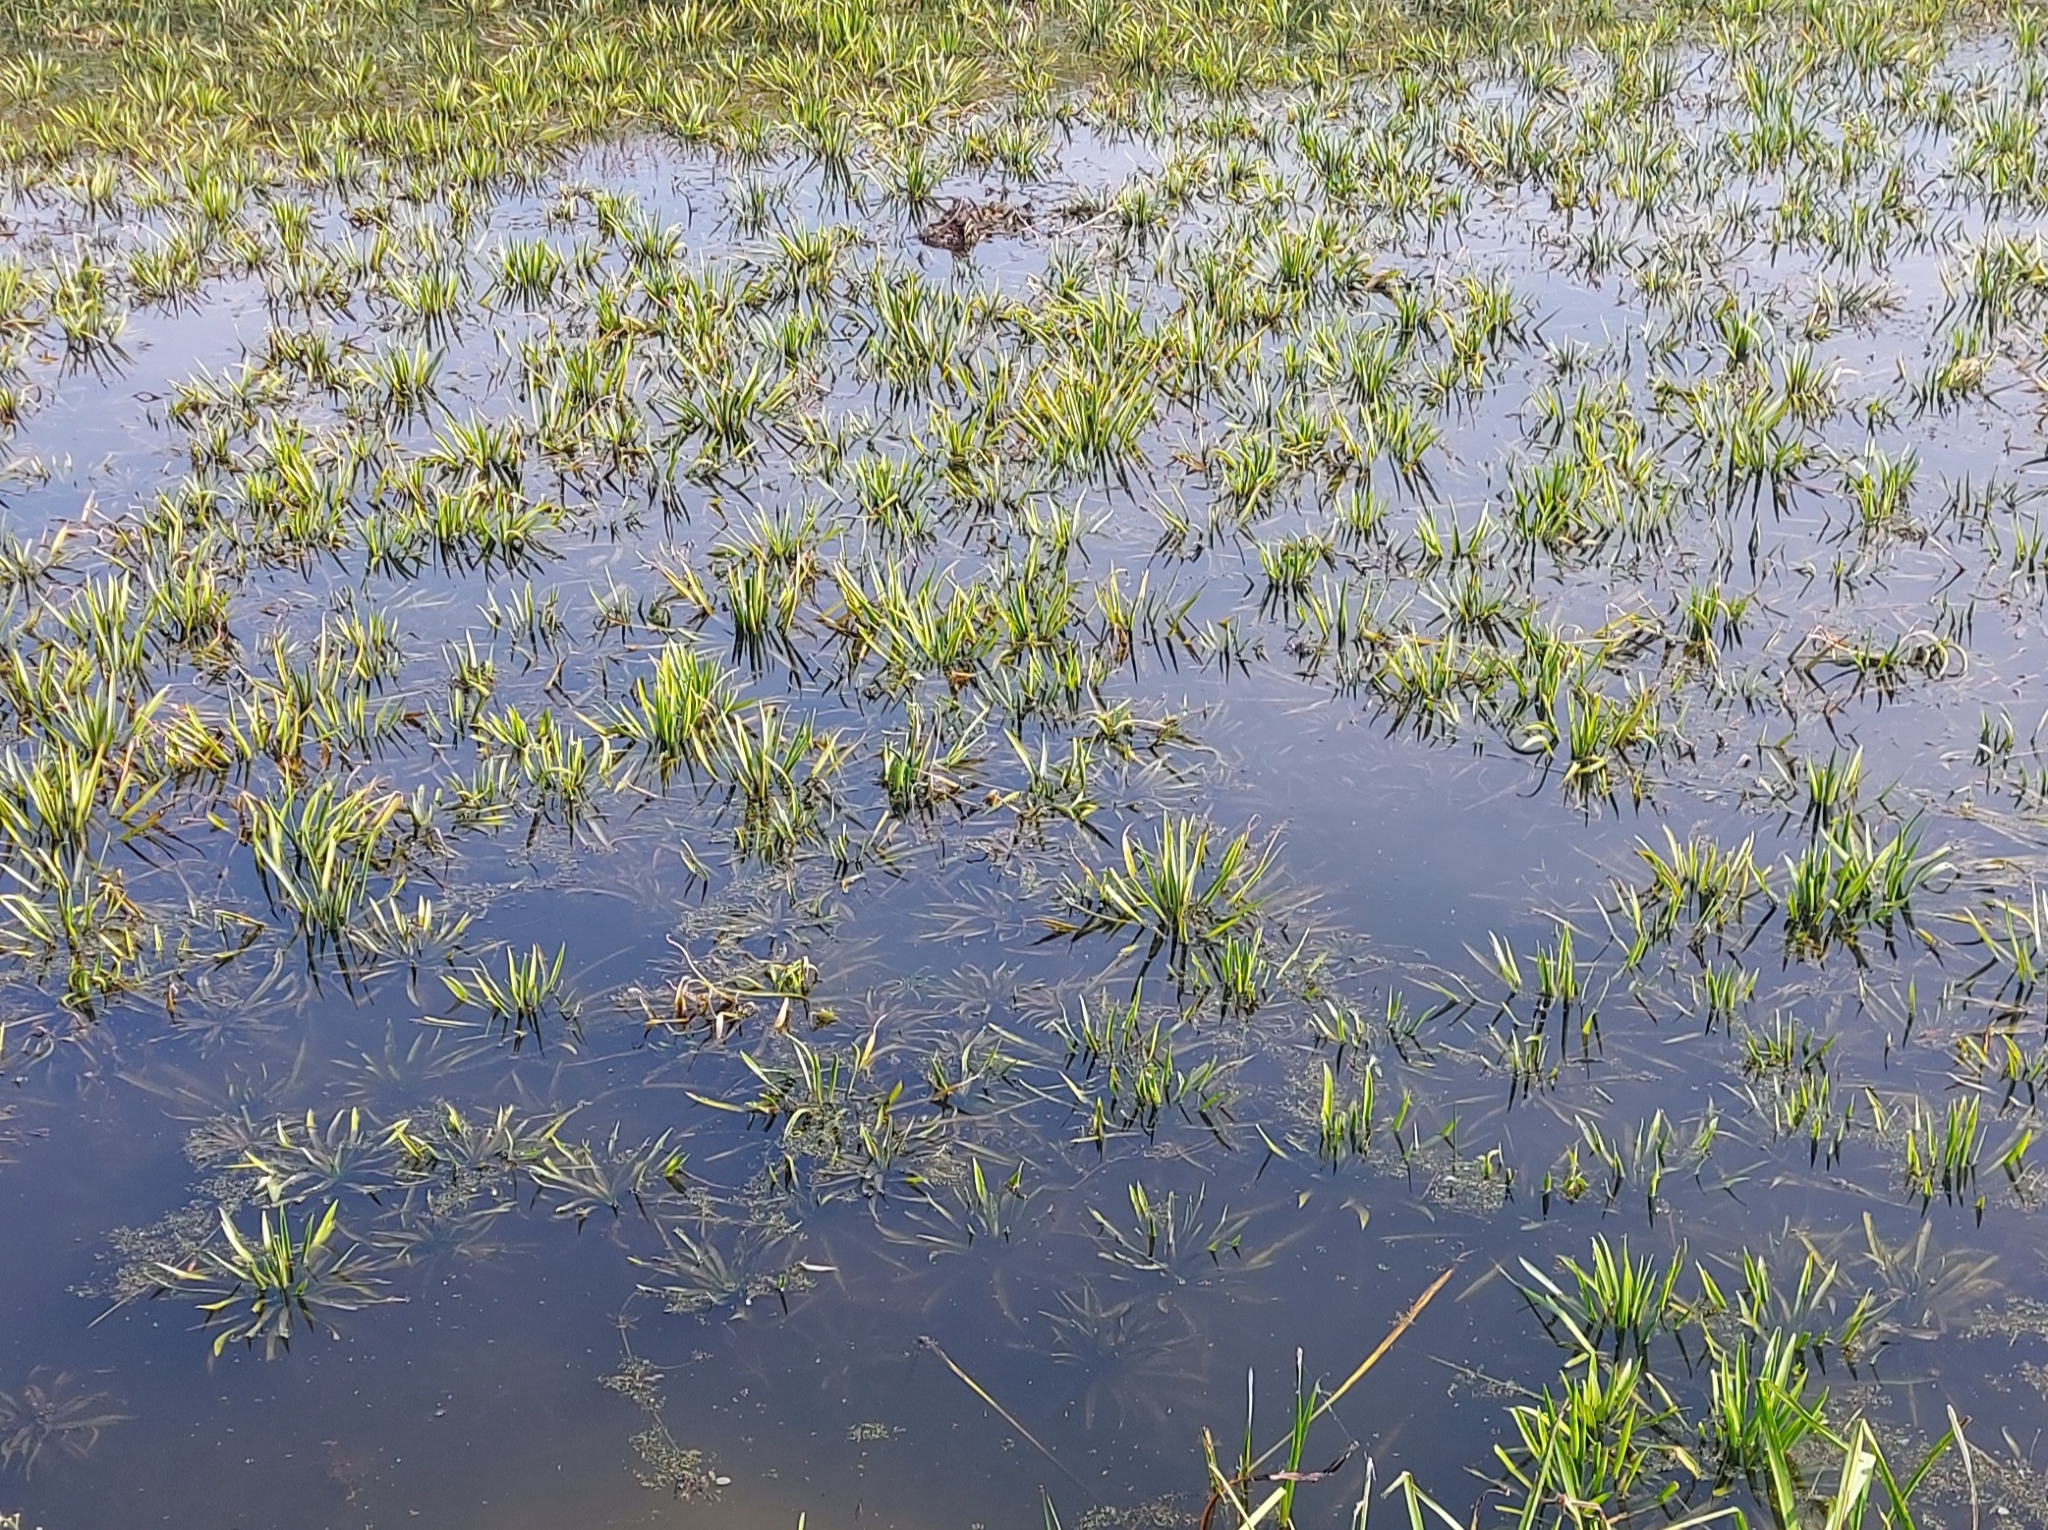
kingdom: Plantae
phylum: Tracheophyta
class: Liliopsida
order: Alismatales
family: Hydrocharitaceae
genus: Stratiotes
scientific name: Stratiotes aloides
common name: Water-soldier
